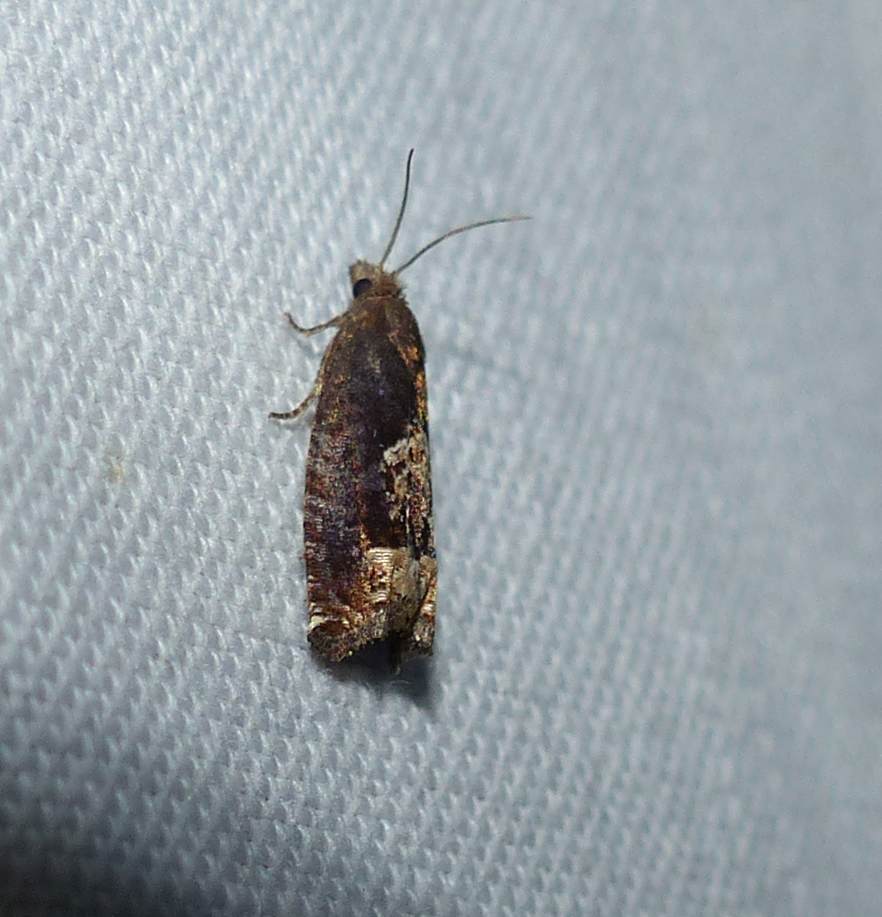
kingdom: Animalia
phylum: Arthropoda
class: Insecta
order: Lepidoptera
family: Tortricidae
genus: Eucosma
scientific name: Eucosma parmatana
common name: Aster eucosma moth
